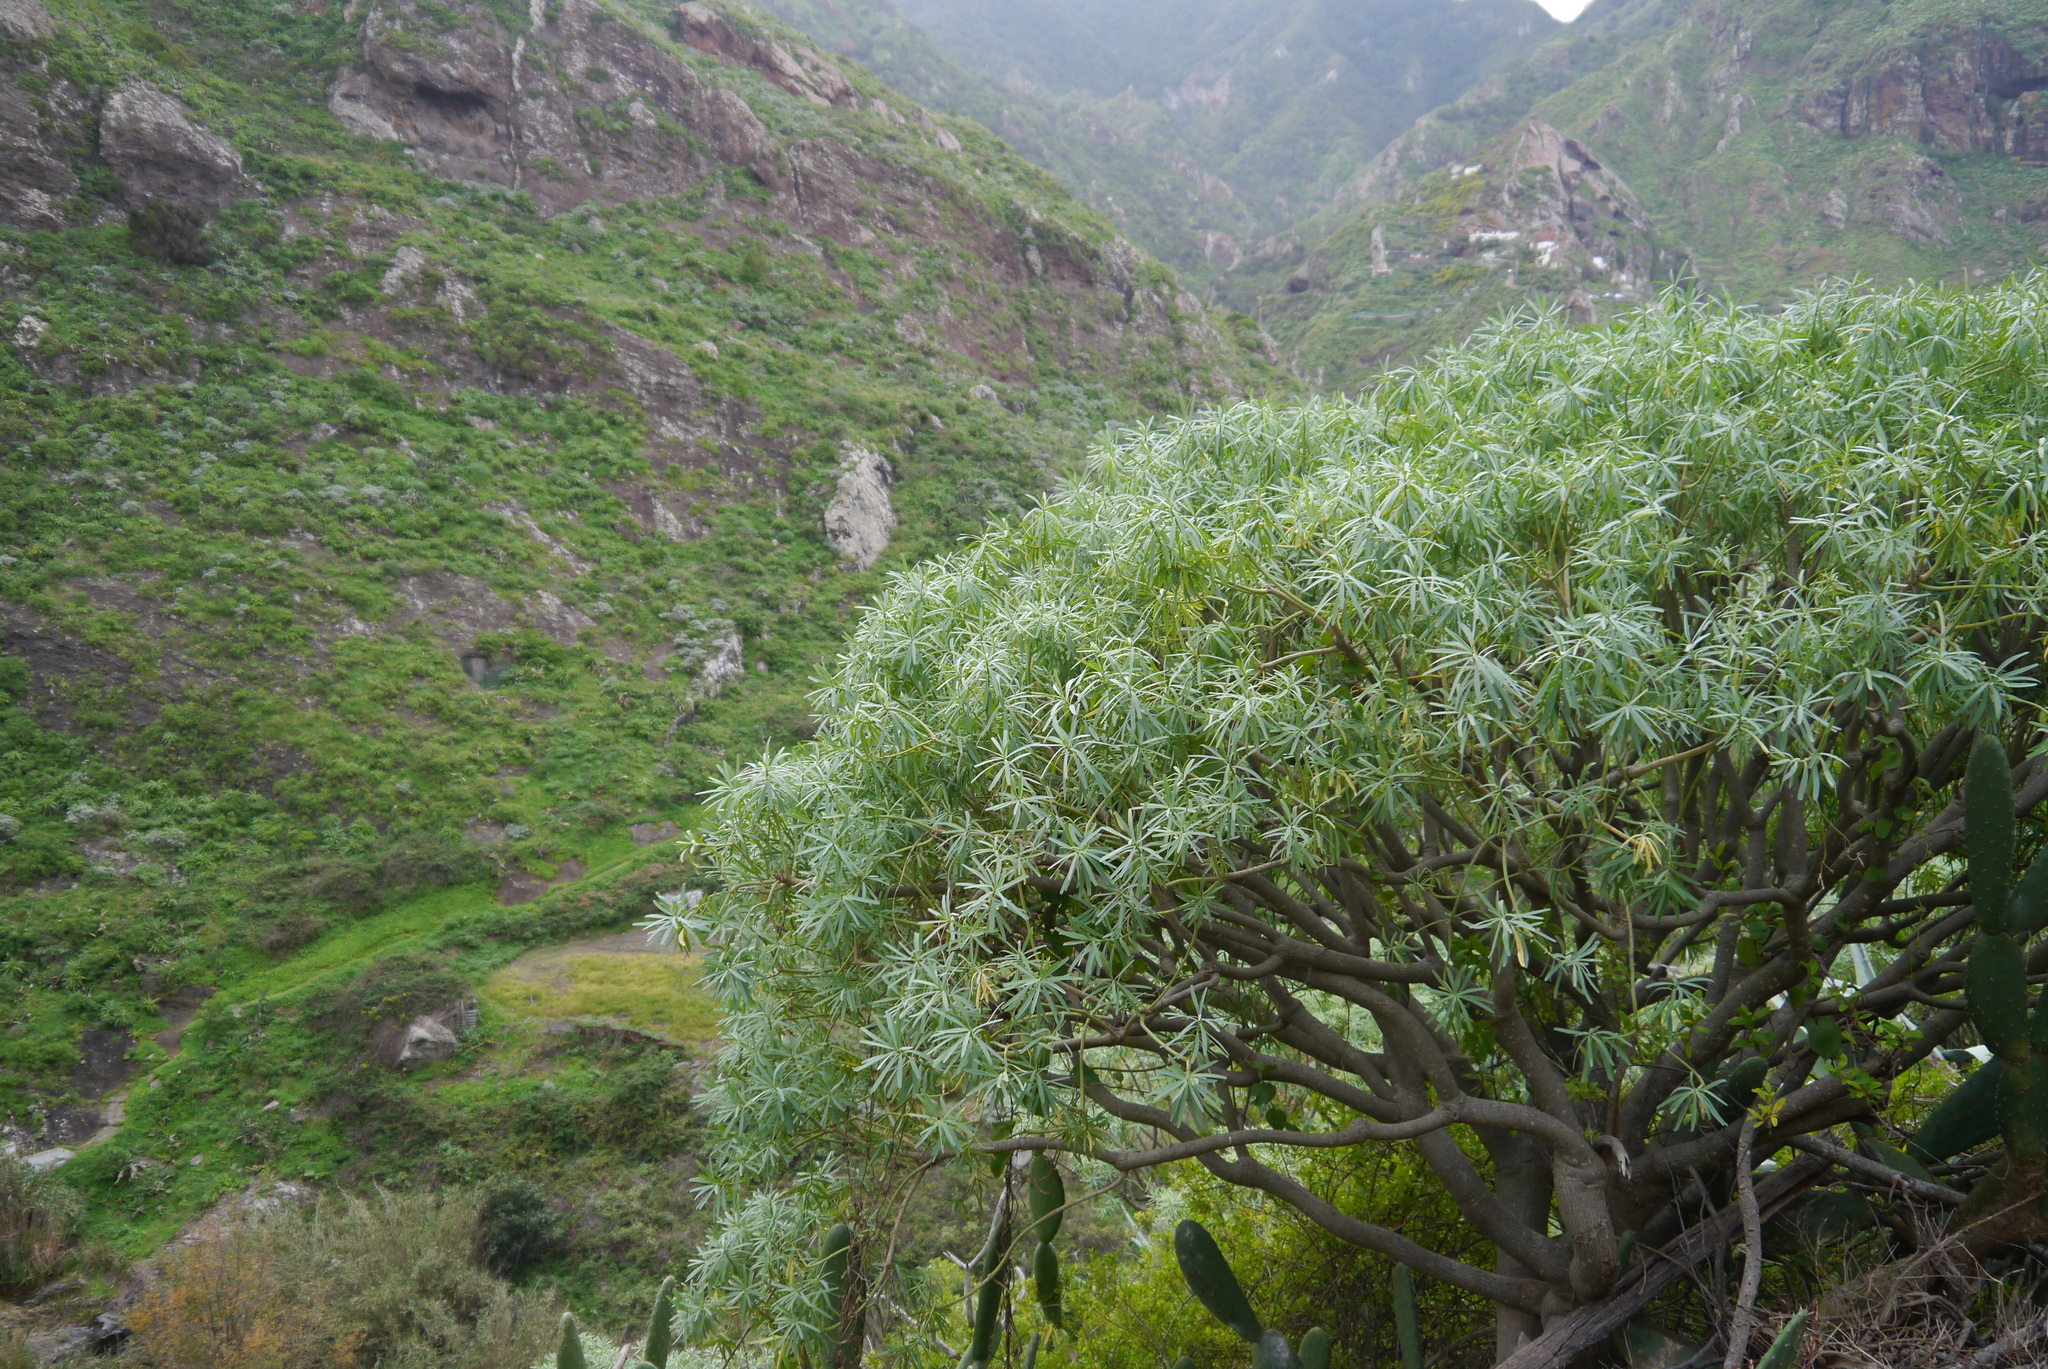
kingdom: Plantae
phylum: Tracheophyta
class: Magnoliopsida
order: Malpighiales
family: Euphorbiaceae
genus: Euphorbia
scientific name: Euphorbia lamarckii
